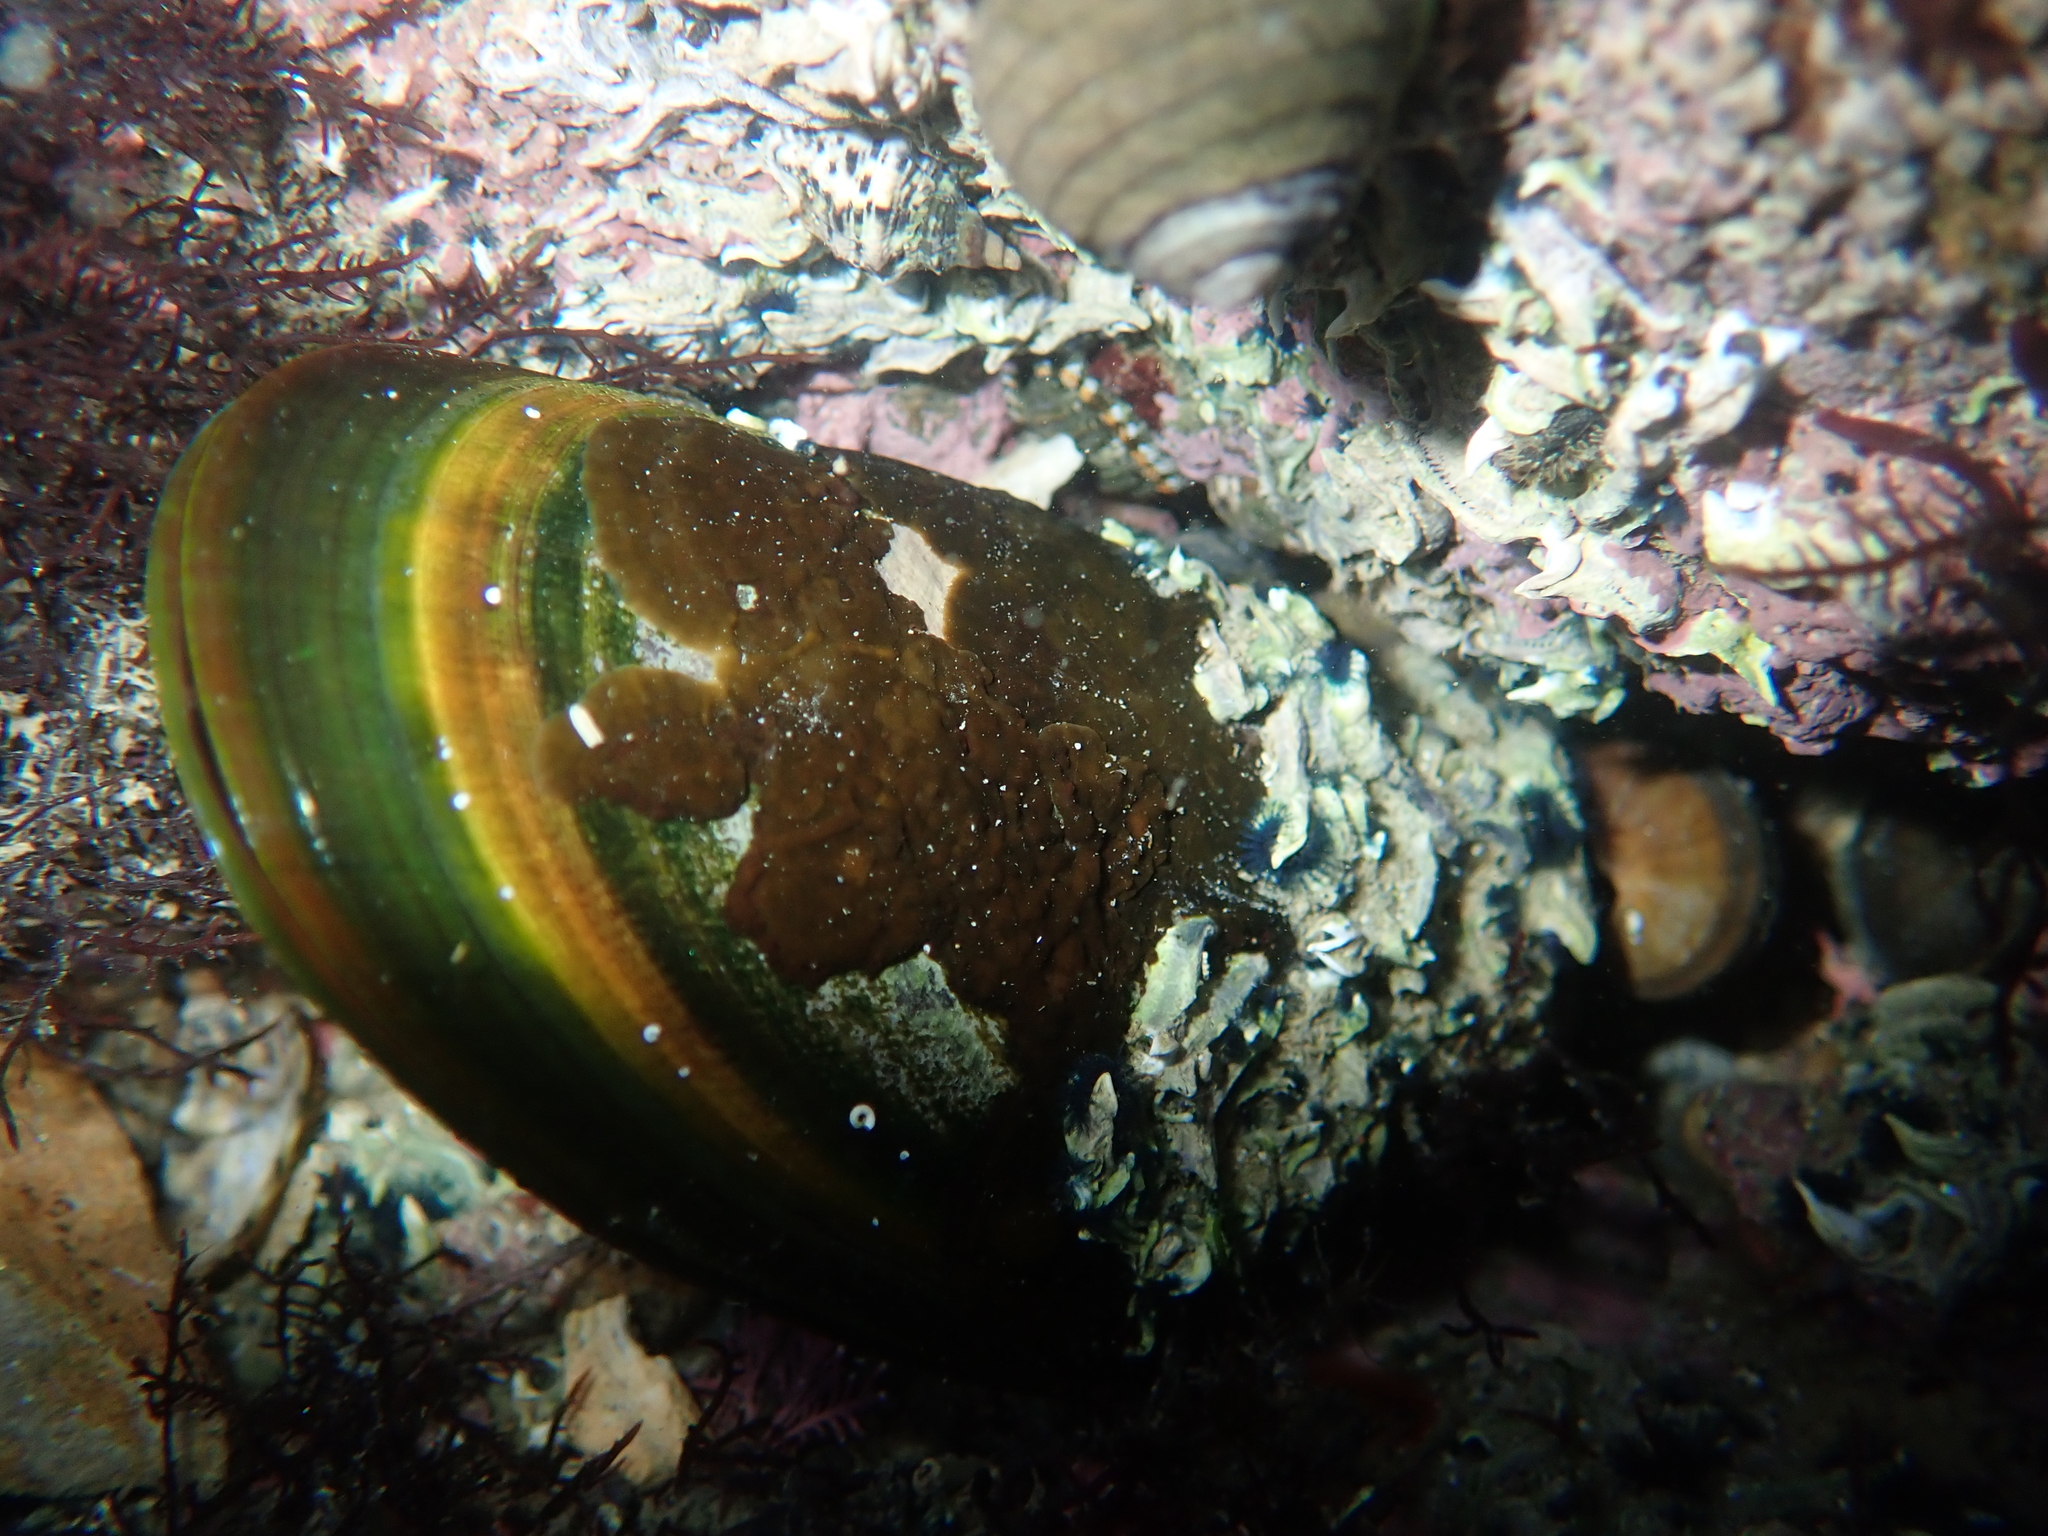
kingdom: Animalia
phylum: Mollusca
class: Bivalvia
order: Mytilida
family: Mytilidae
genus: Perna
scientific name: Perna canaliculus
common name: New zealand greenshelltm
